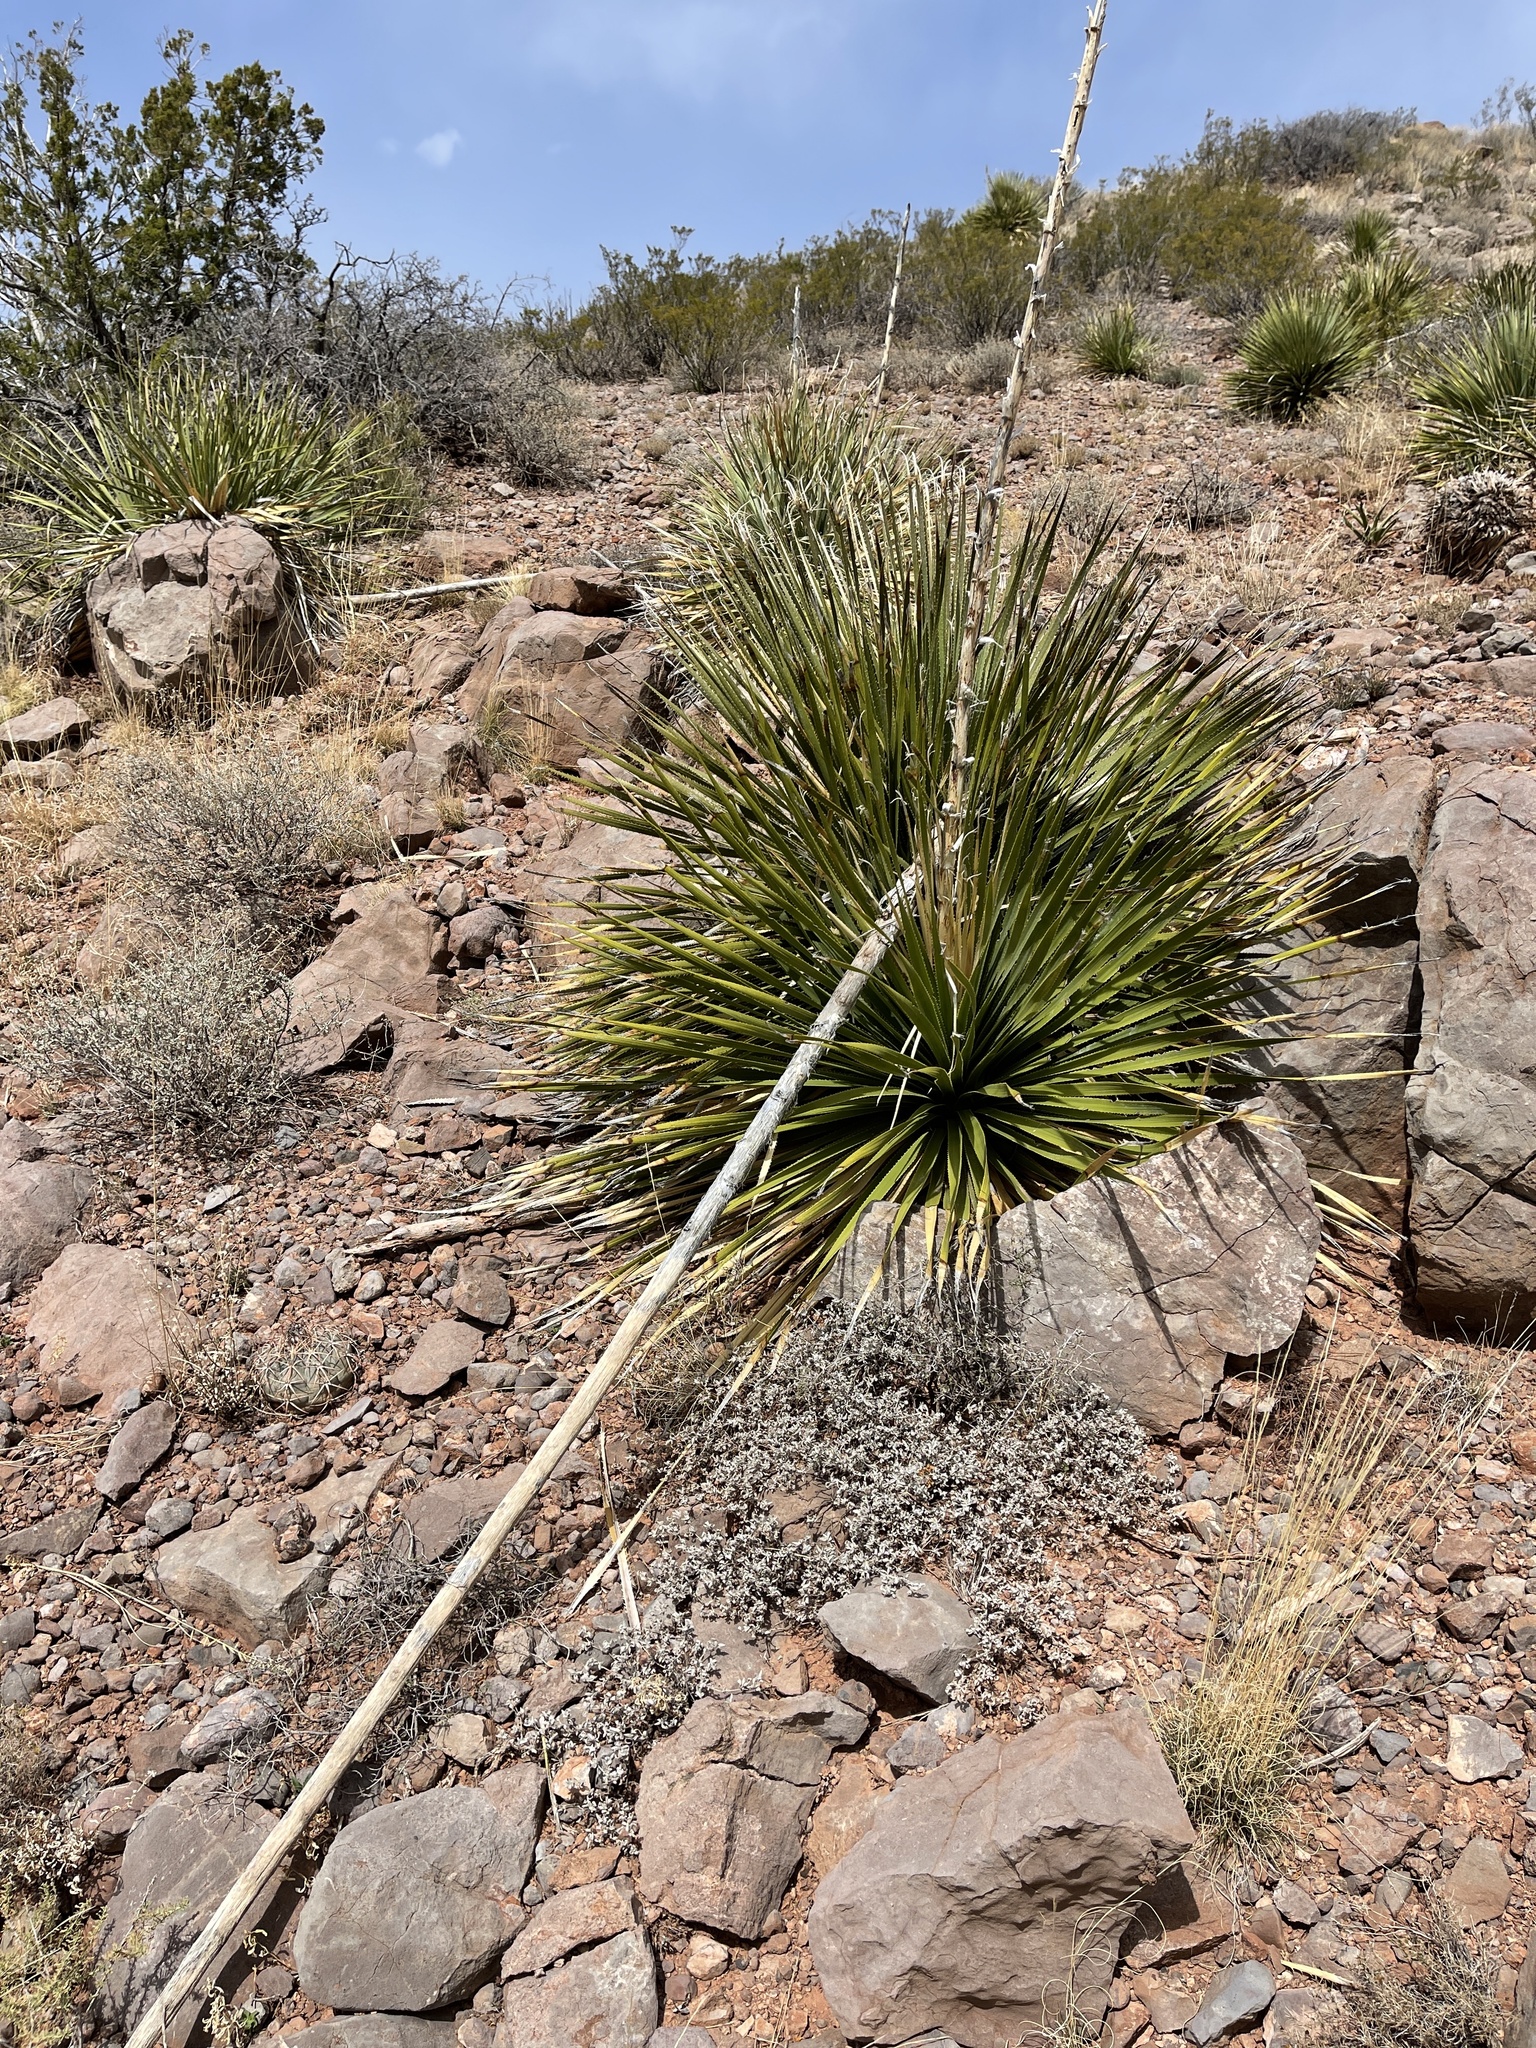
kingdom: Plantae
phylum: Tracheophyta
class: Liliopsida
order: Asparagales
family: Asparagaceae
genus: Dasylirion
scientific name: Dasylirion wheeleri
